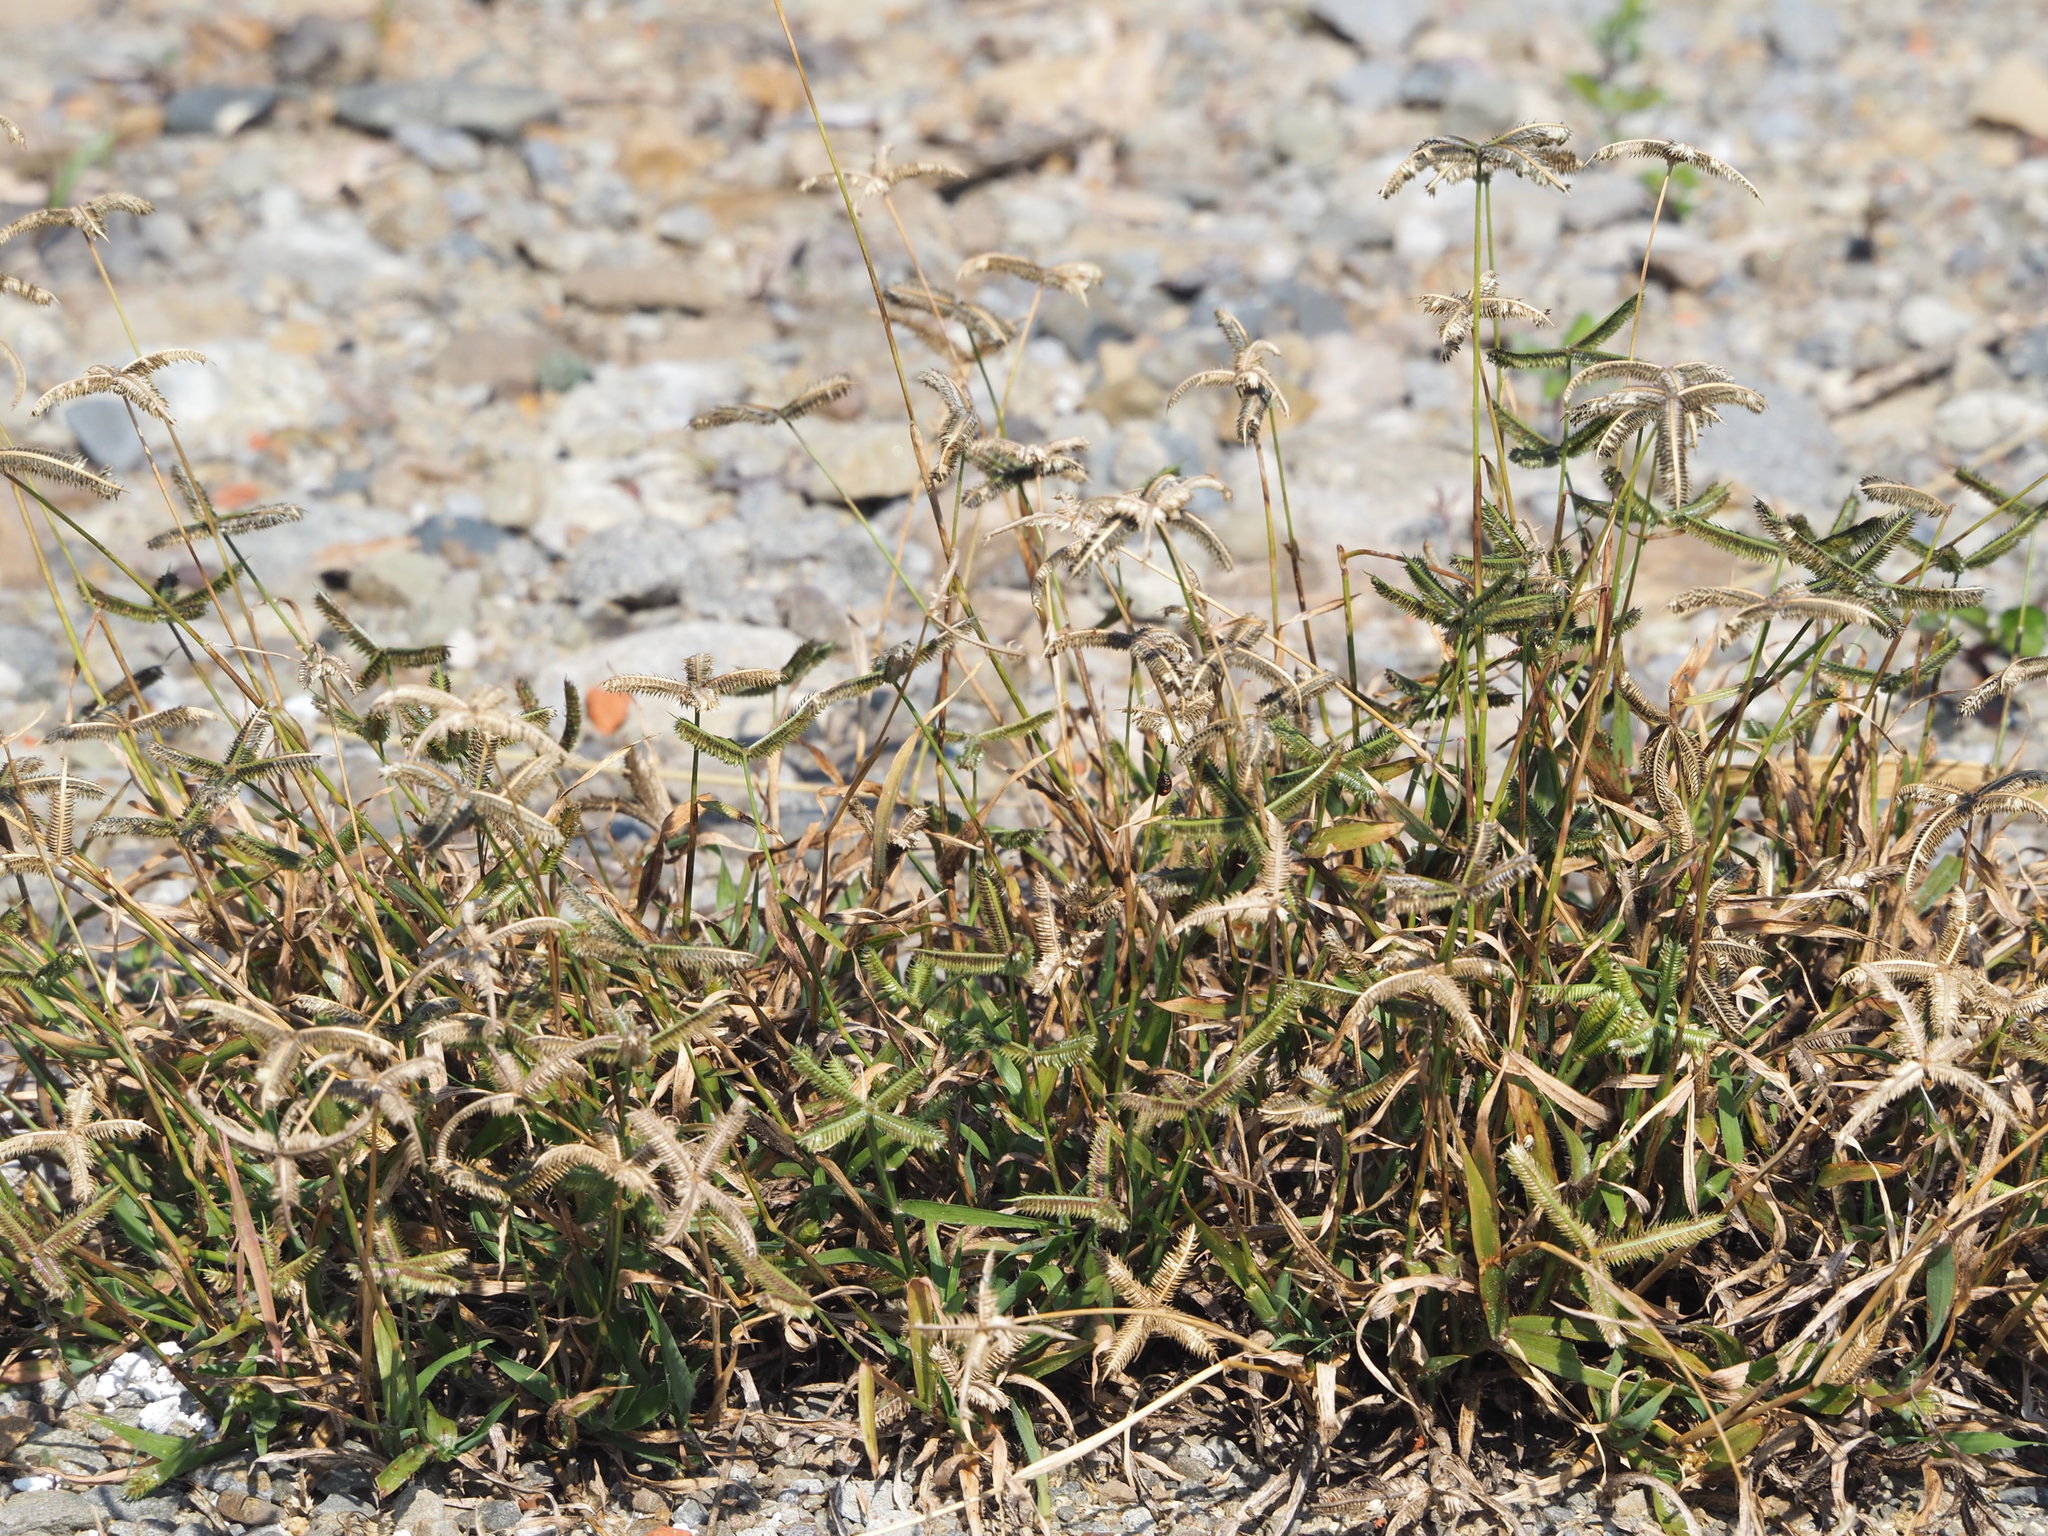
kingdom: Plantae
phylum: Tracheophyta
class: Liliopsida
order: Poales
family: Poaceae
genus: Dactyloctenium
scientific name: Dactyloctenium aegyptium
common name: Egyptian grass
